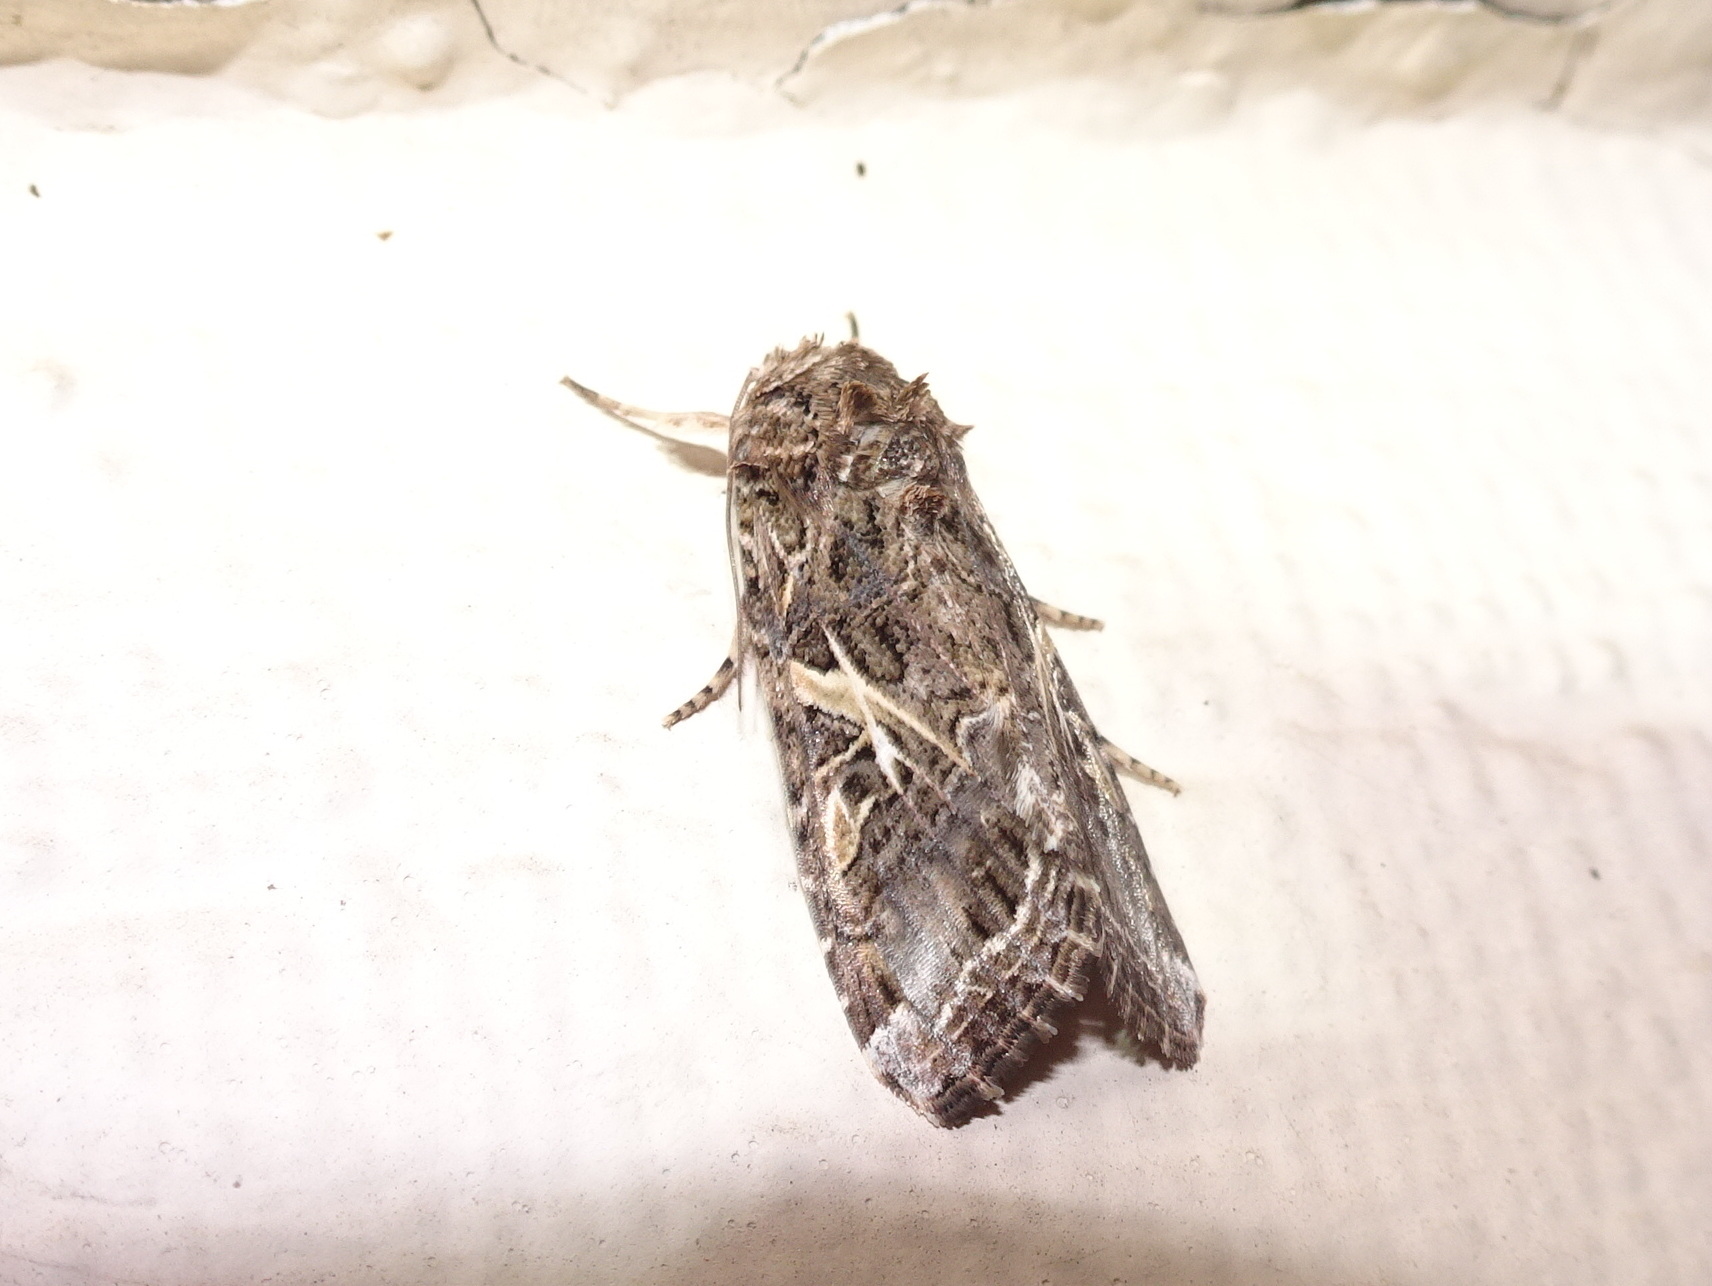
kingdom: Animalia
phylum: Arthropoda
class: Insecta
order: Lepidoptera
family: Noctuidae
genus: Spodoptera
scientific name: Spodoptera ornithogalli
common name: Yellow-striped armyworm
